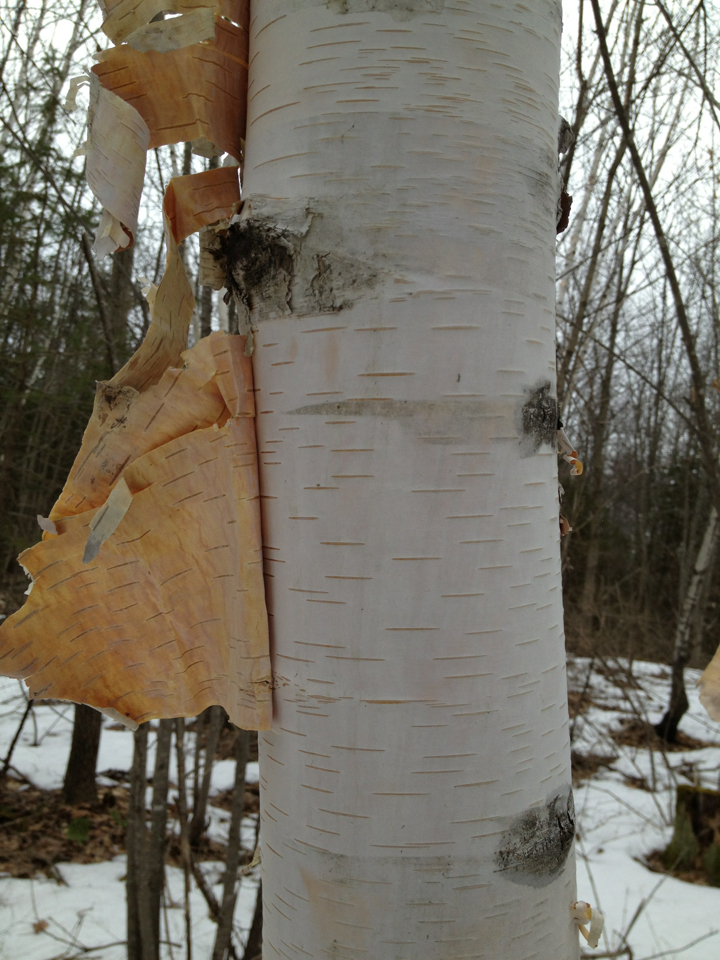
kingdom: Plantae
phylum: Tracheophyta
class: Magnoliopsida
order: Fagales
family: Betulaceae
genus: Betula
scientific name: Betula papyrifera
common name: Paper birch
